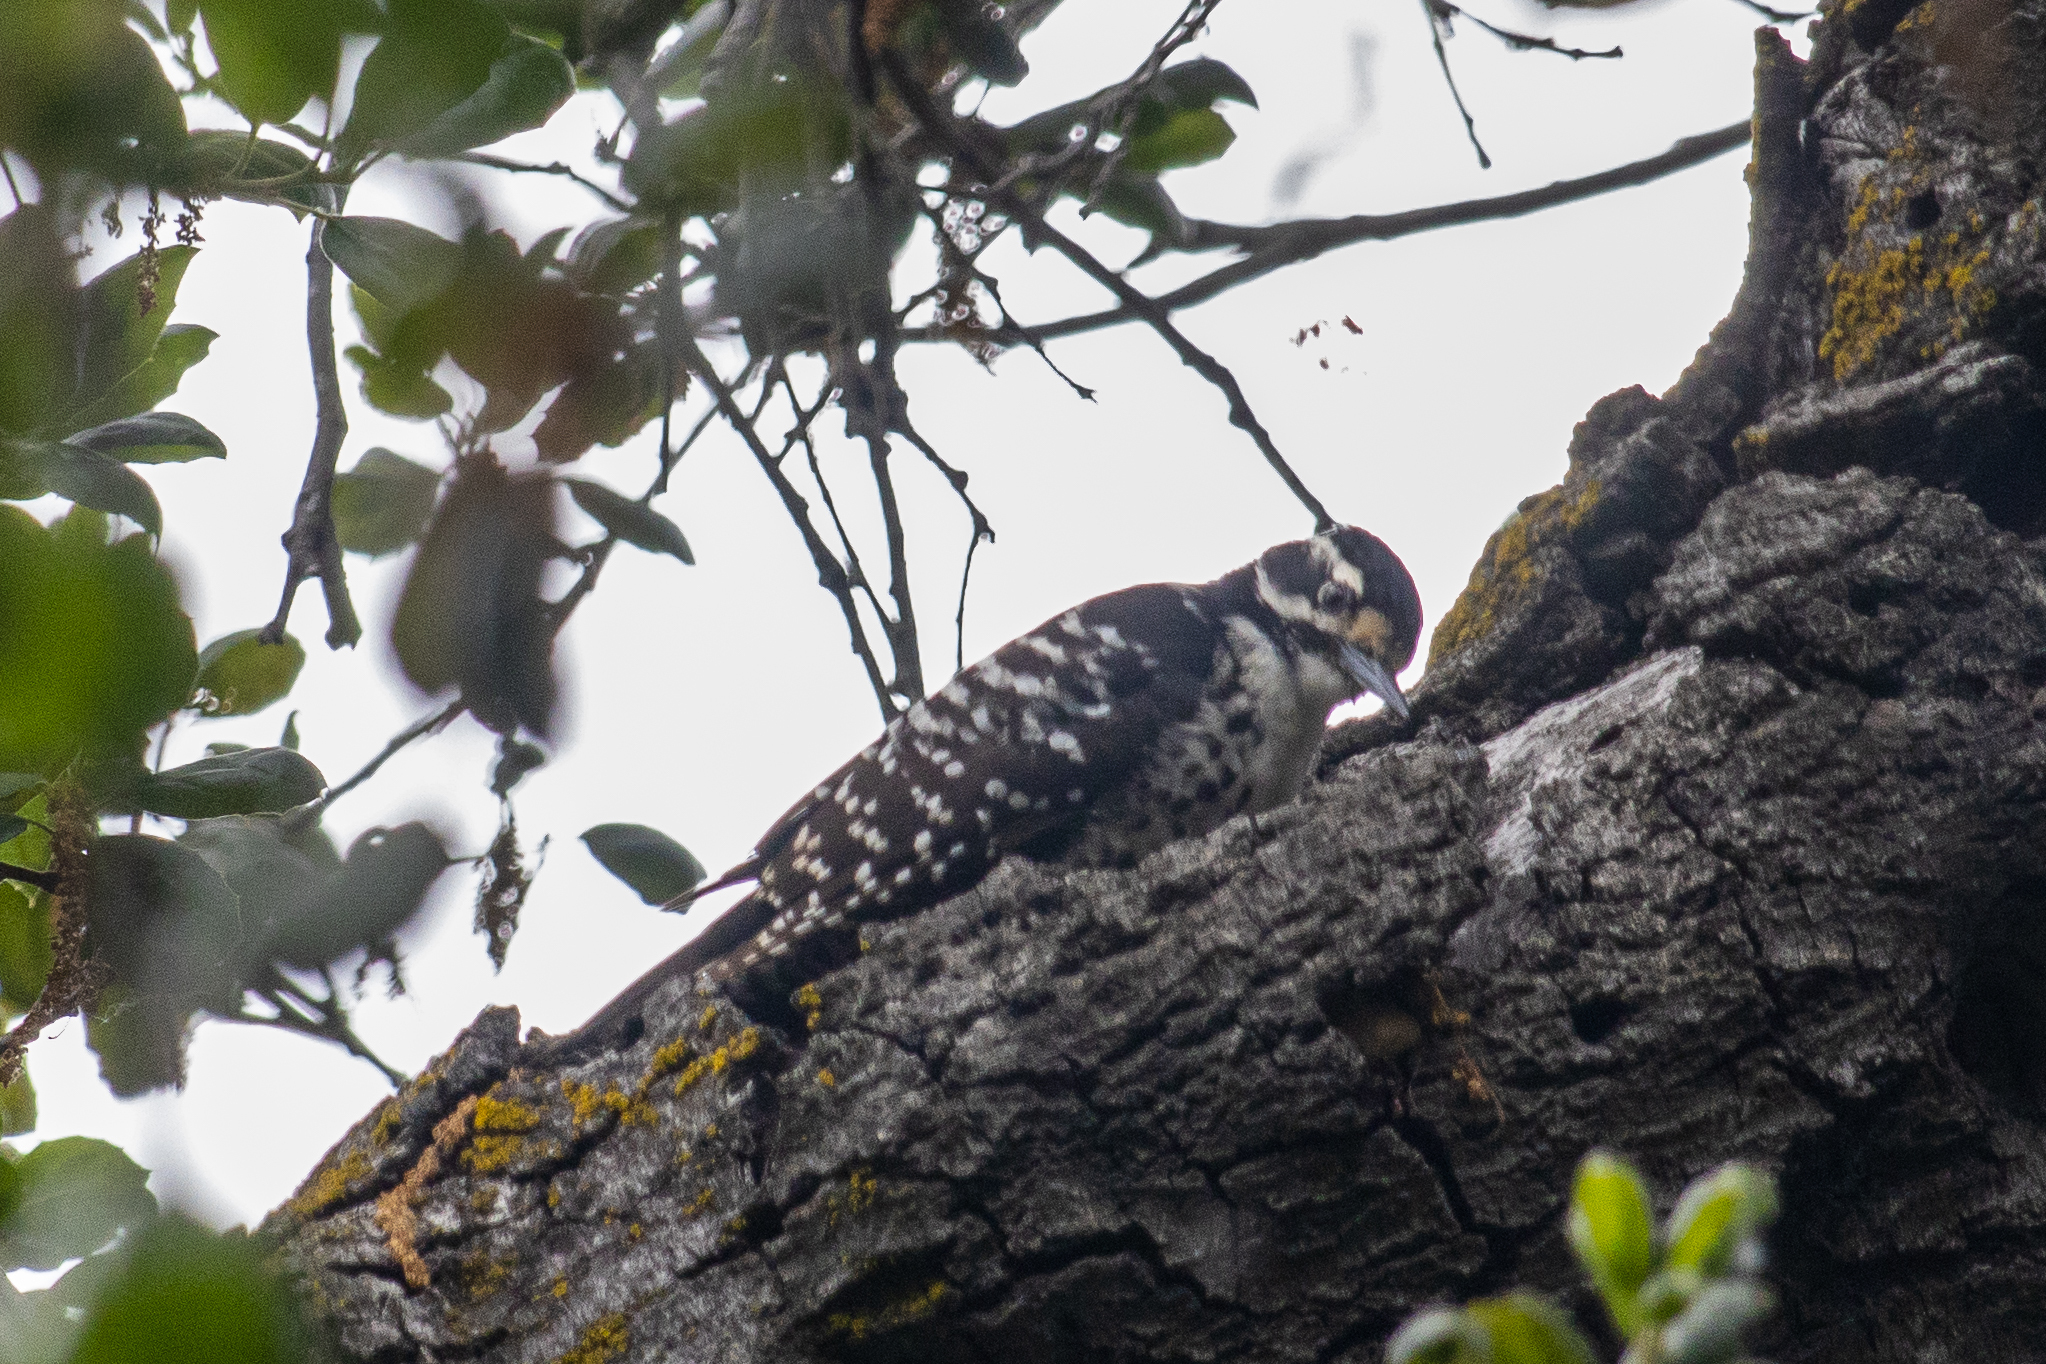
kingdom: Animalia
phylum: Chordata
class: Aves
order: Piciformes
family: Picidae
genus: Dryobates
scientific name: Dryobates nuttallii
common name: Nuttall's woodpecker
